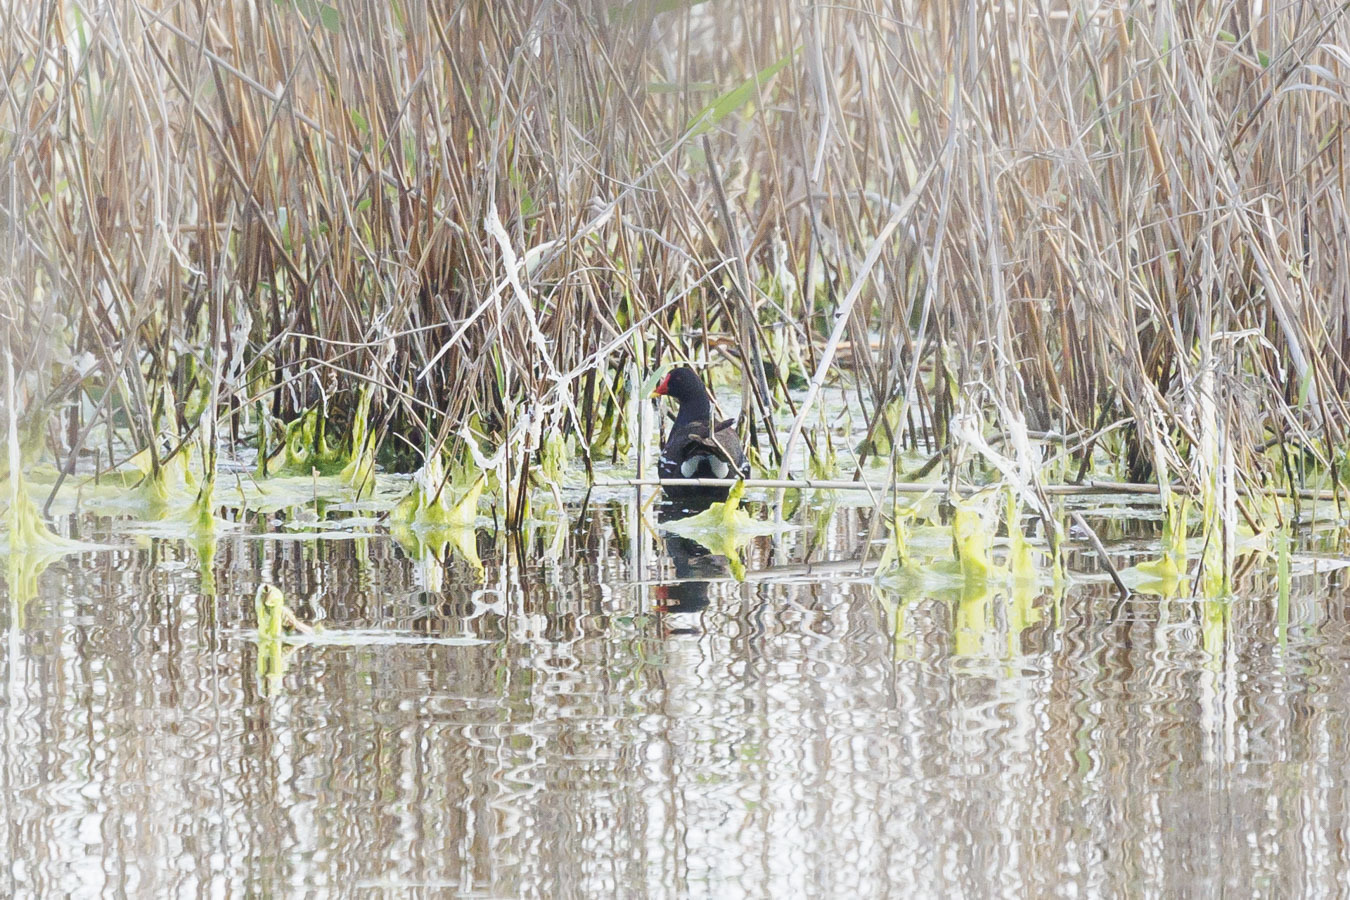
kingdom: Animalia
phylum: Chordata
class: Aves
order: Gruiformes
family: Rallidae
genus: Gallinula
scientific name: Gallinula chloropus
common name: Common moorhen
